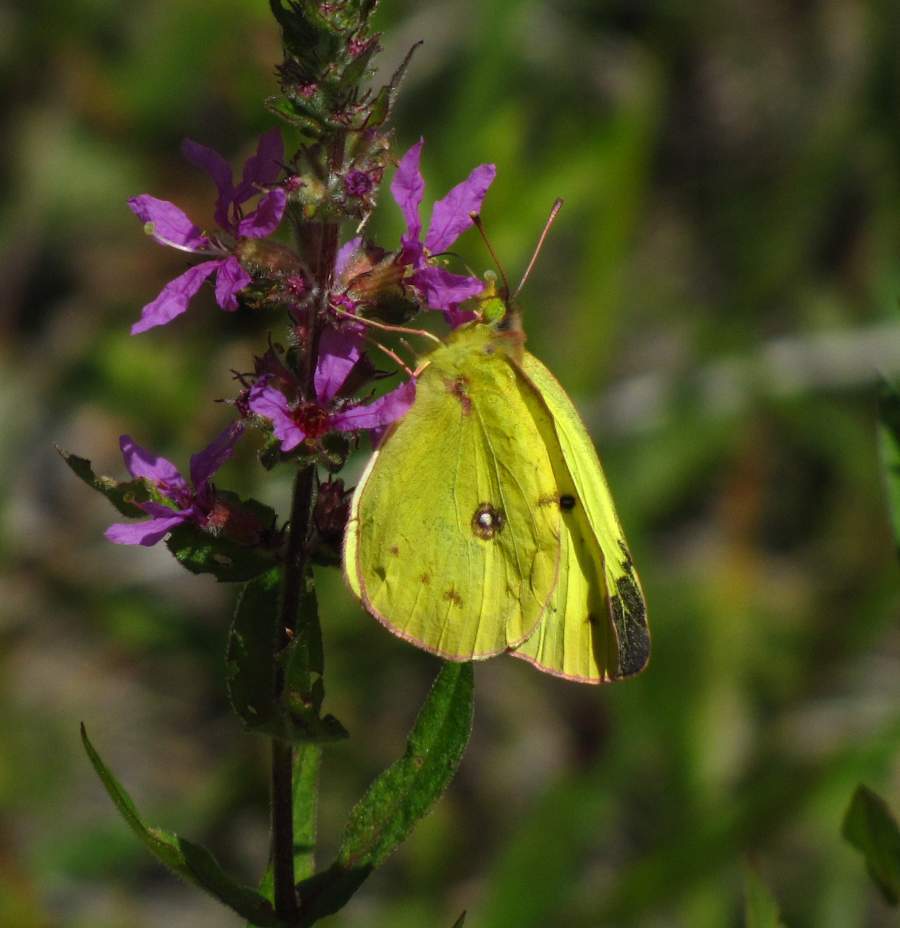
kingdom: Animalia
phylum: Arthropoda
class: Insecta
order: Lepidoptera
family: Pieridae
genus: Colias
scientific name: Colias philodice
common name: Clouded sulphur
